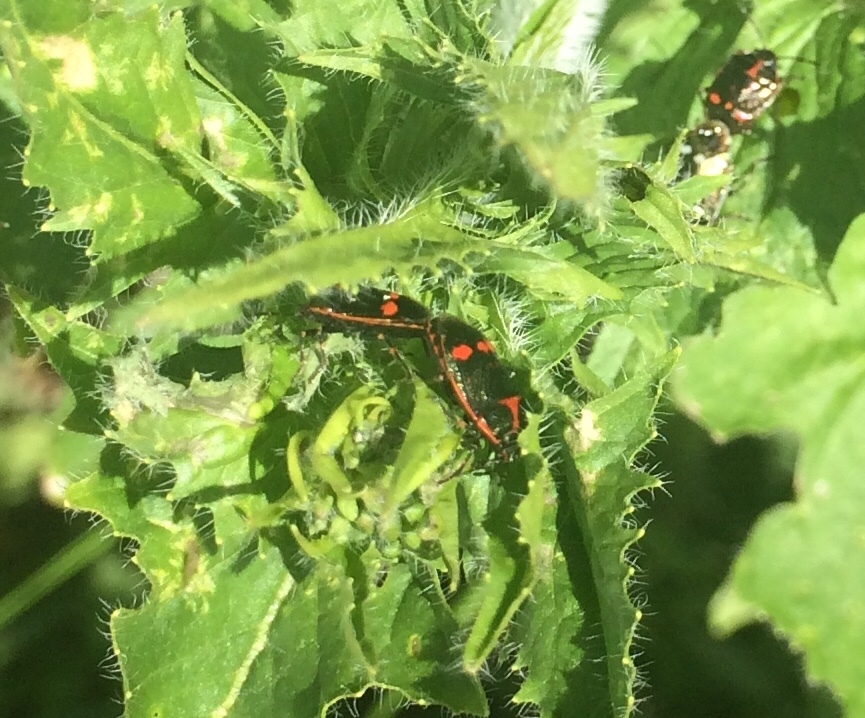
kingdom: Animalia
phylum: Arthropoda
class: Insecta
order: Hemiptera
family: Pentatomidae
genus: Eurydema
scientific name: Eurydema oleracea
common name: Cabbage bug
